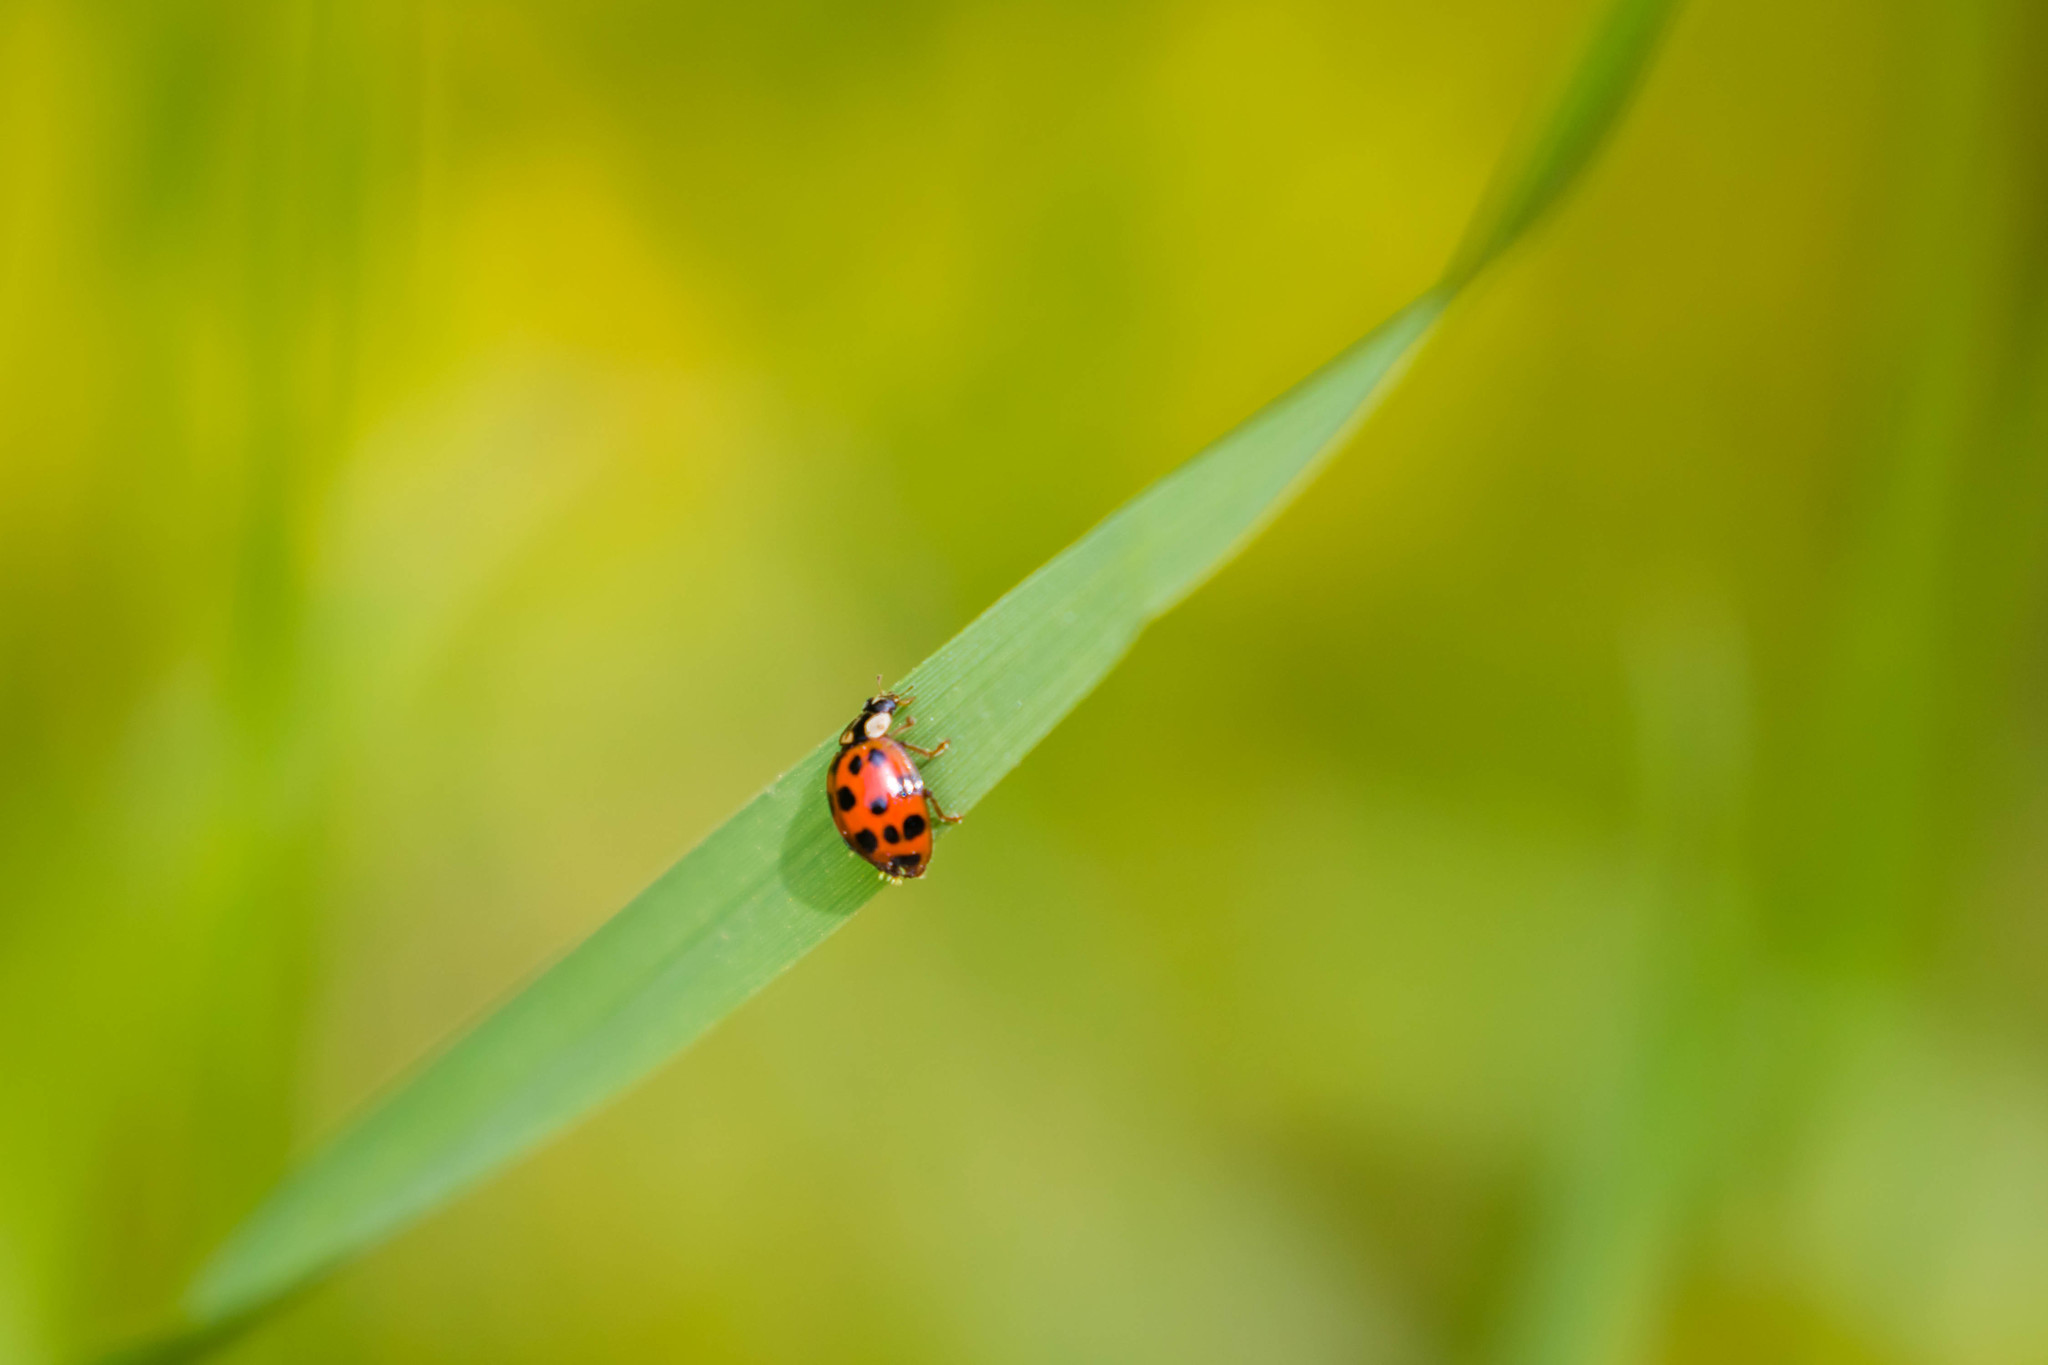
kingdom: Animalia
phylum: Arthropoda
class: Insecta
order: Coleoptera
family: Coccinellidae
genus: Harmonia
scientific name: Harmonia axyridis
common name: Harlequin ladybird
